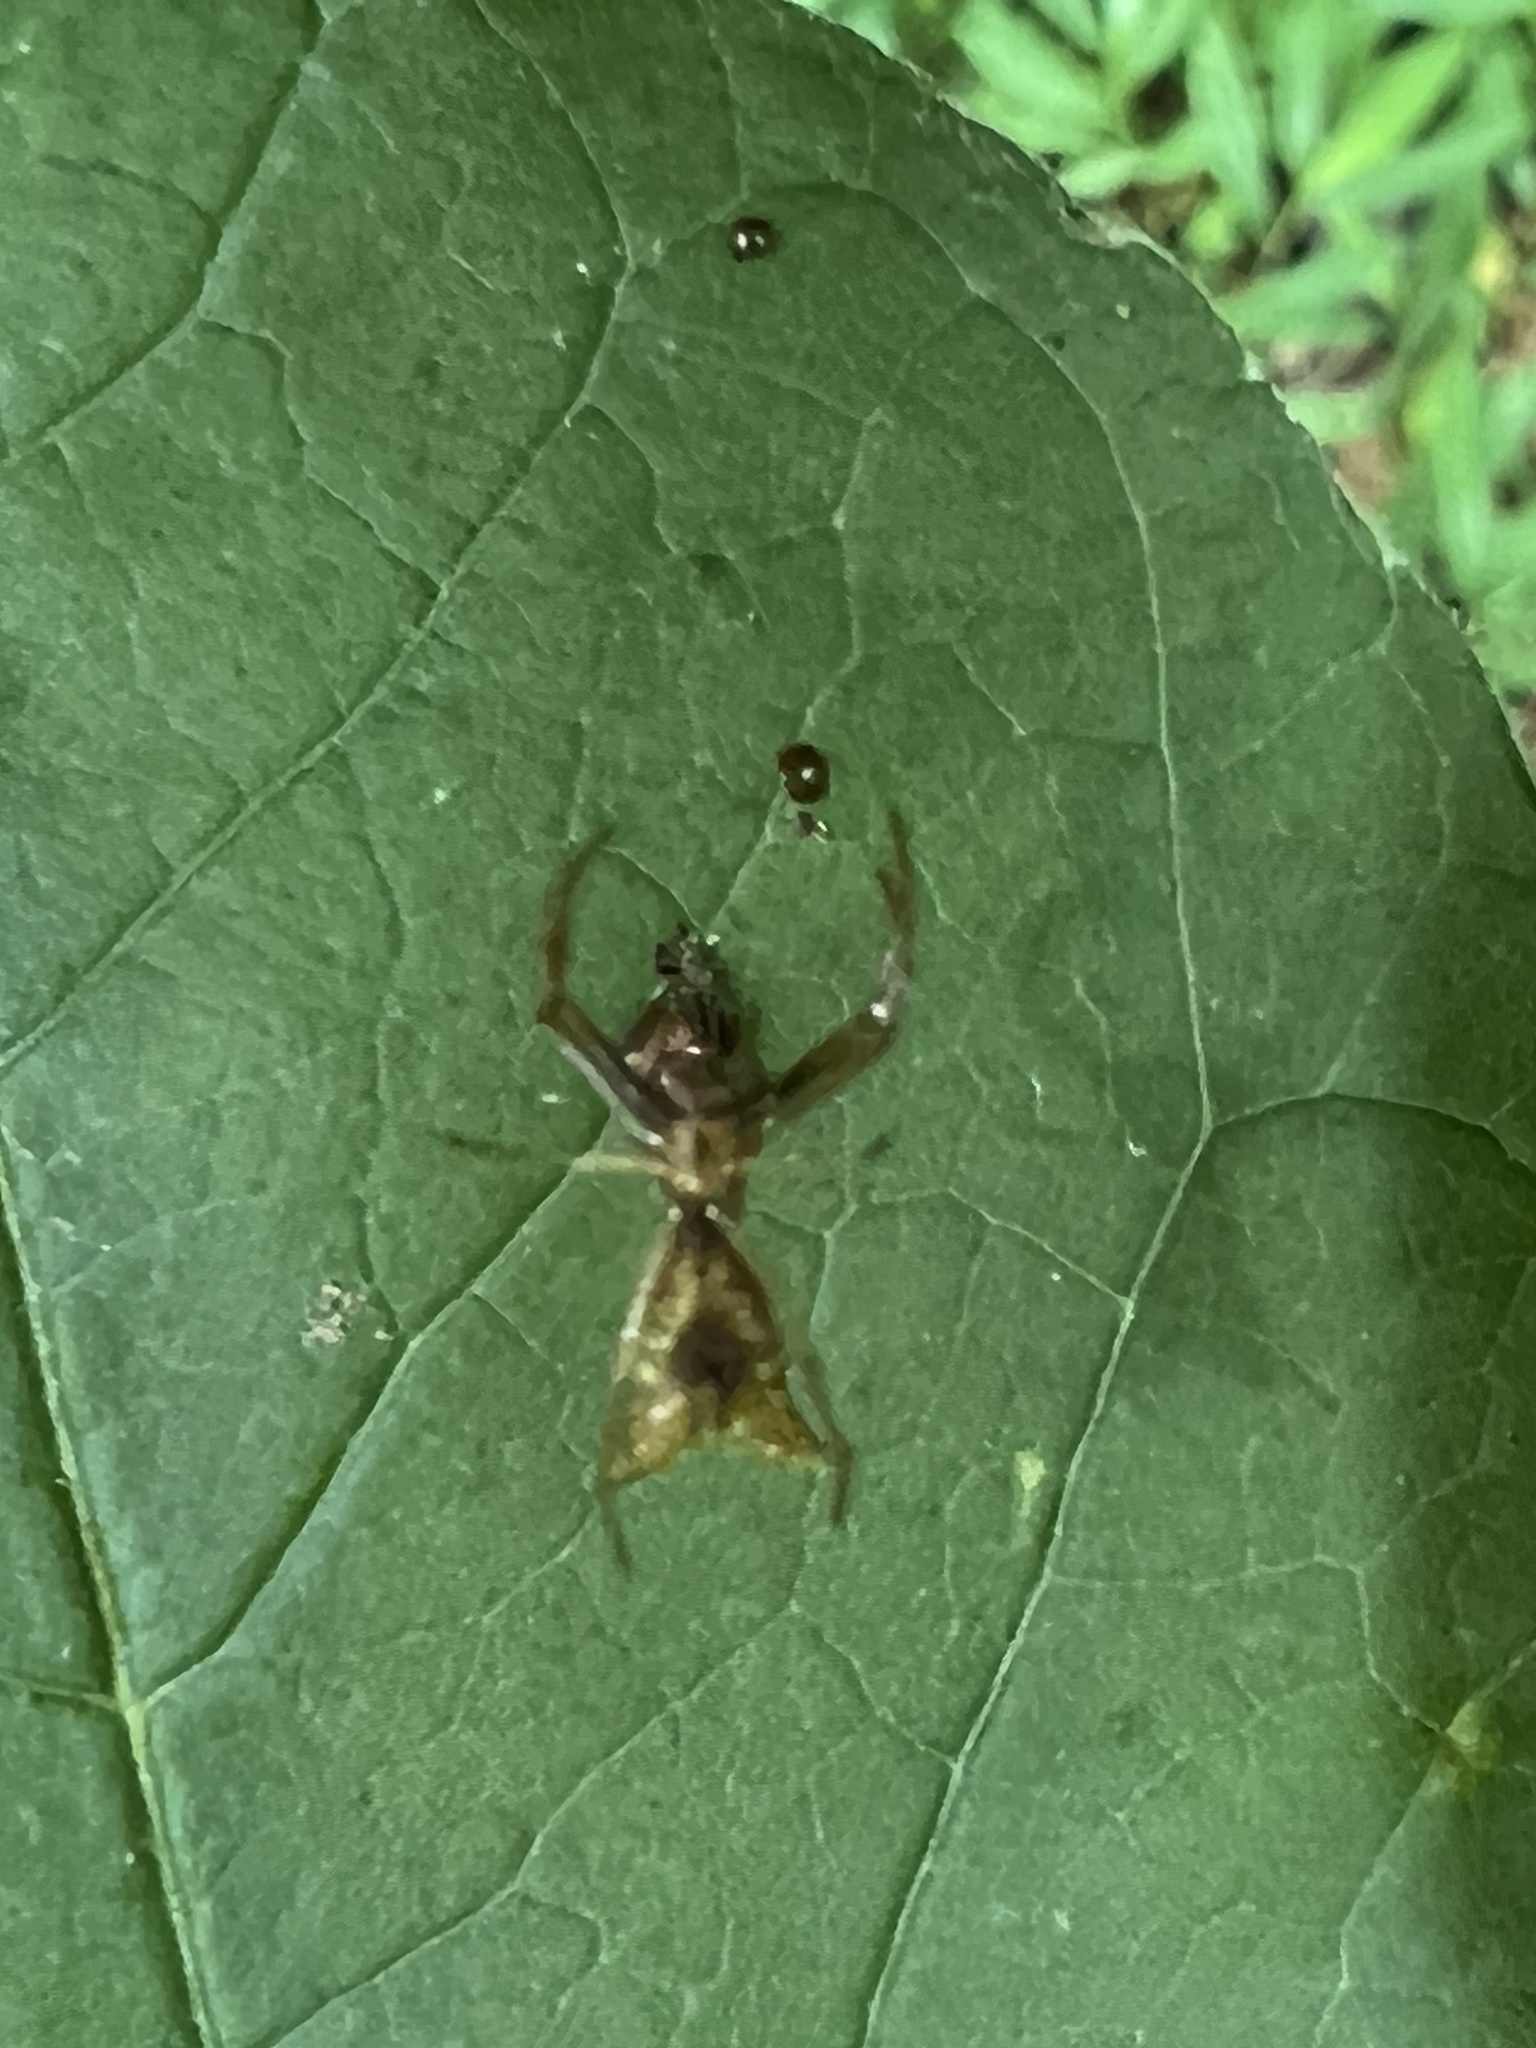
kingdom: Animalia
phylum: Arthropoda
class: Arachnida
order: Araneae
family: Araneidae
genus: Micrathena
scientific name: Micrathena sagittata
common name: Orb weavers
